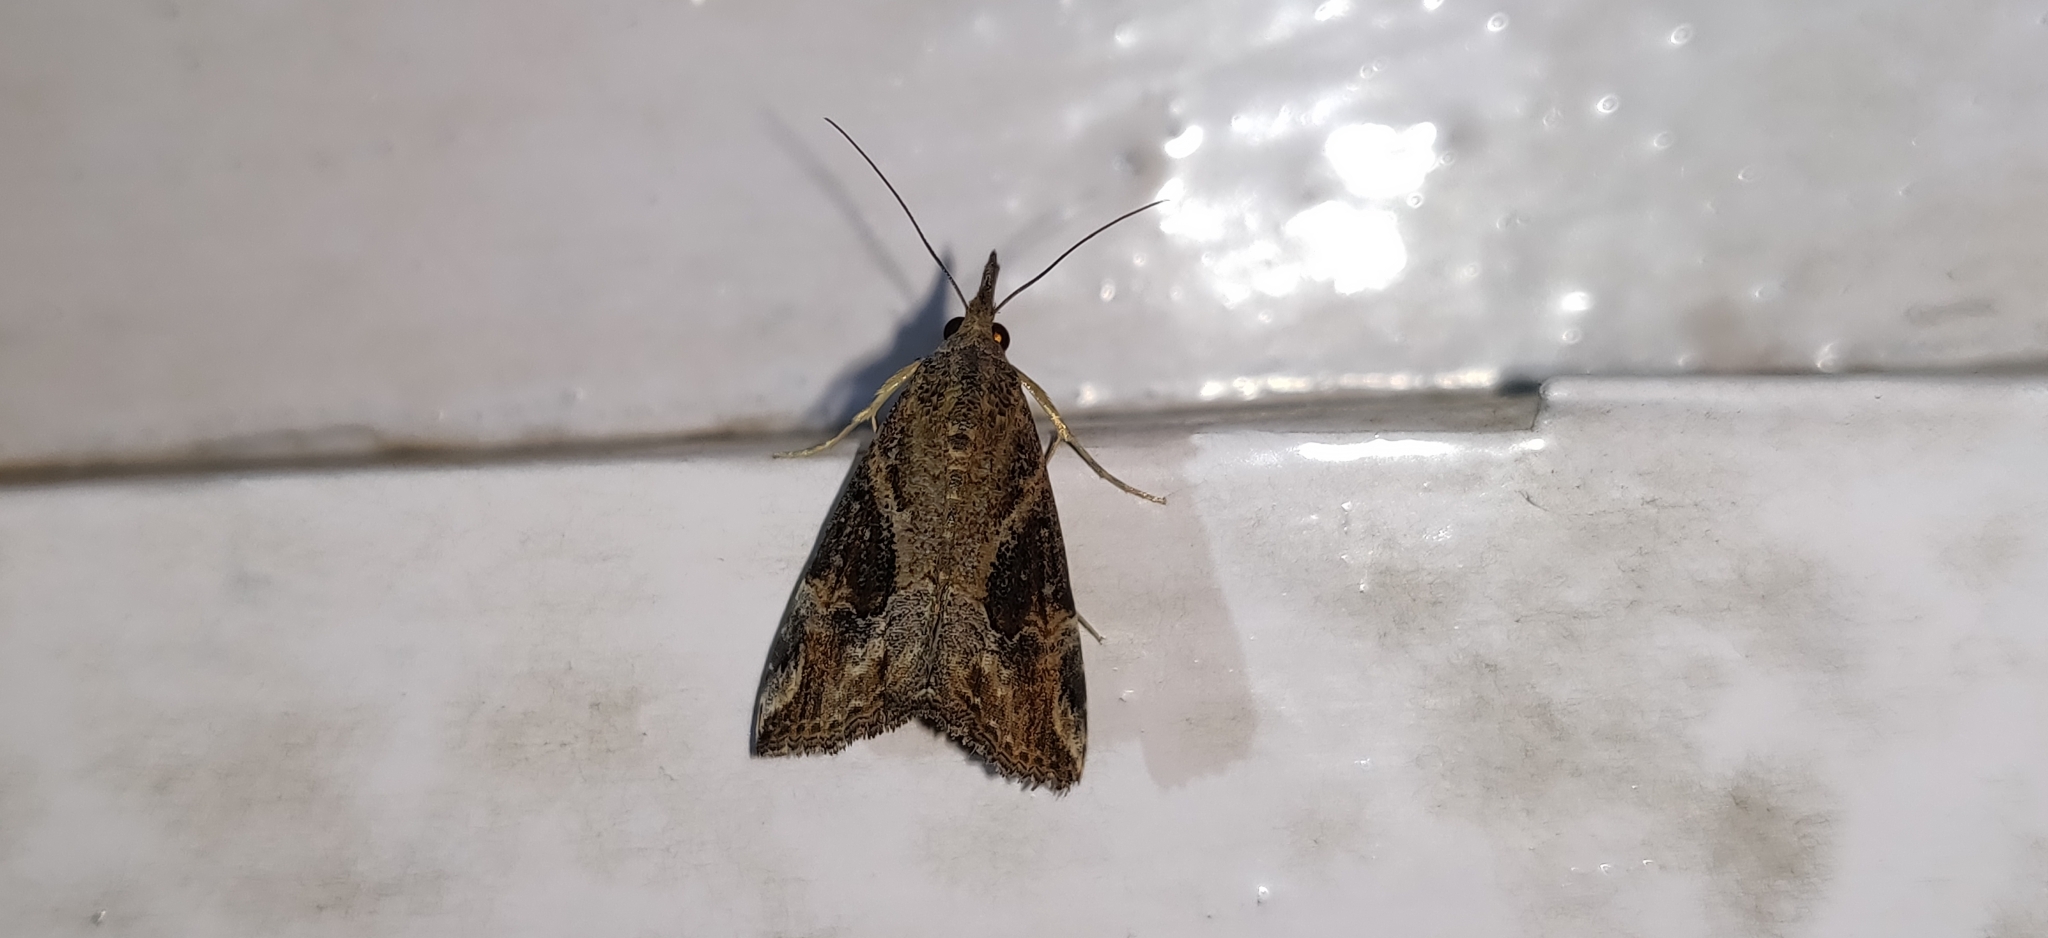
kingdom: Animalia
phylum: Arthropoda
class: Insecta
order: Lepidoptera
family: Erebidae
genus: Hypena
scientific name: Hypena commixtalis
